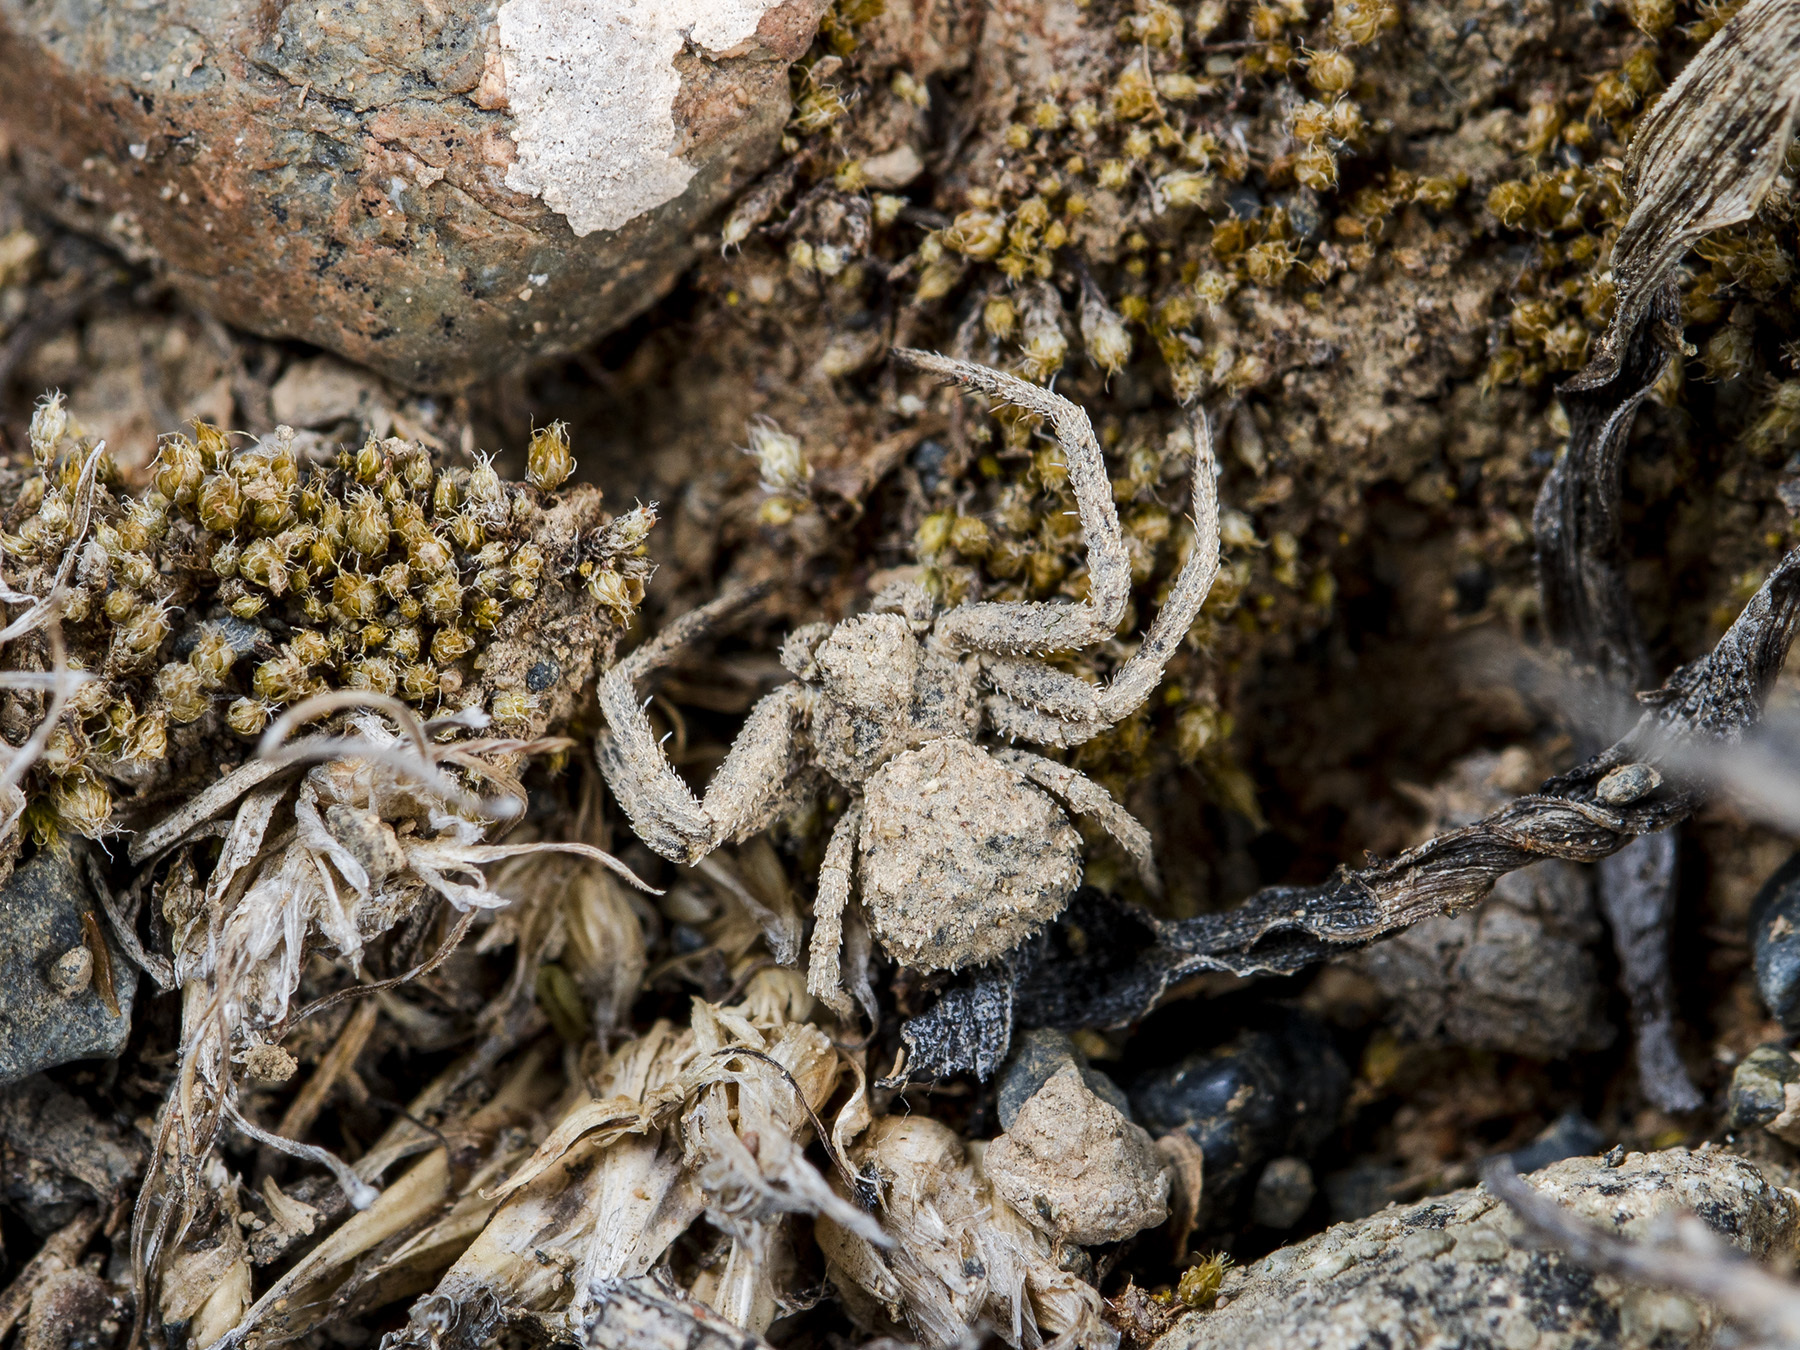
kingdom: Animalia
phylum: Arthropoda
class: Arachnida
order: Araneae
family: Thomisidae
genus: Ozyptila
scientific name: Ozyptila lugubris
